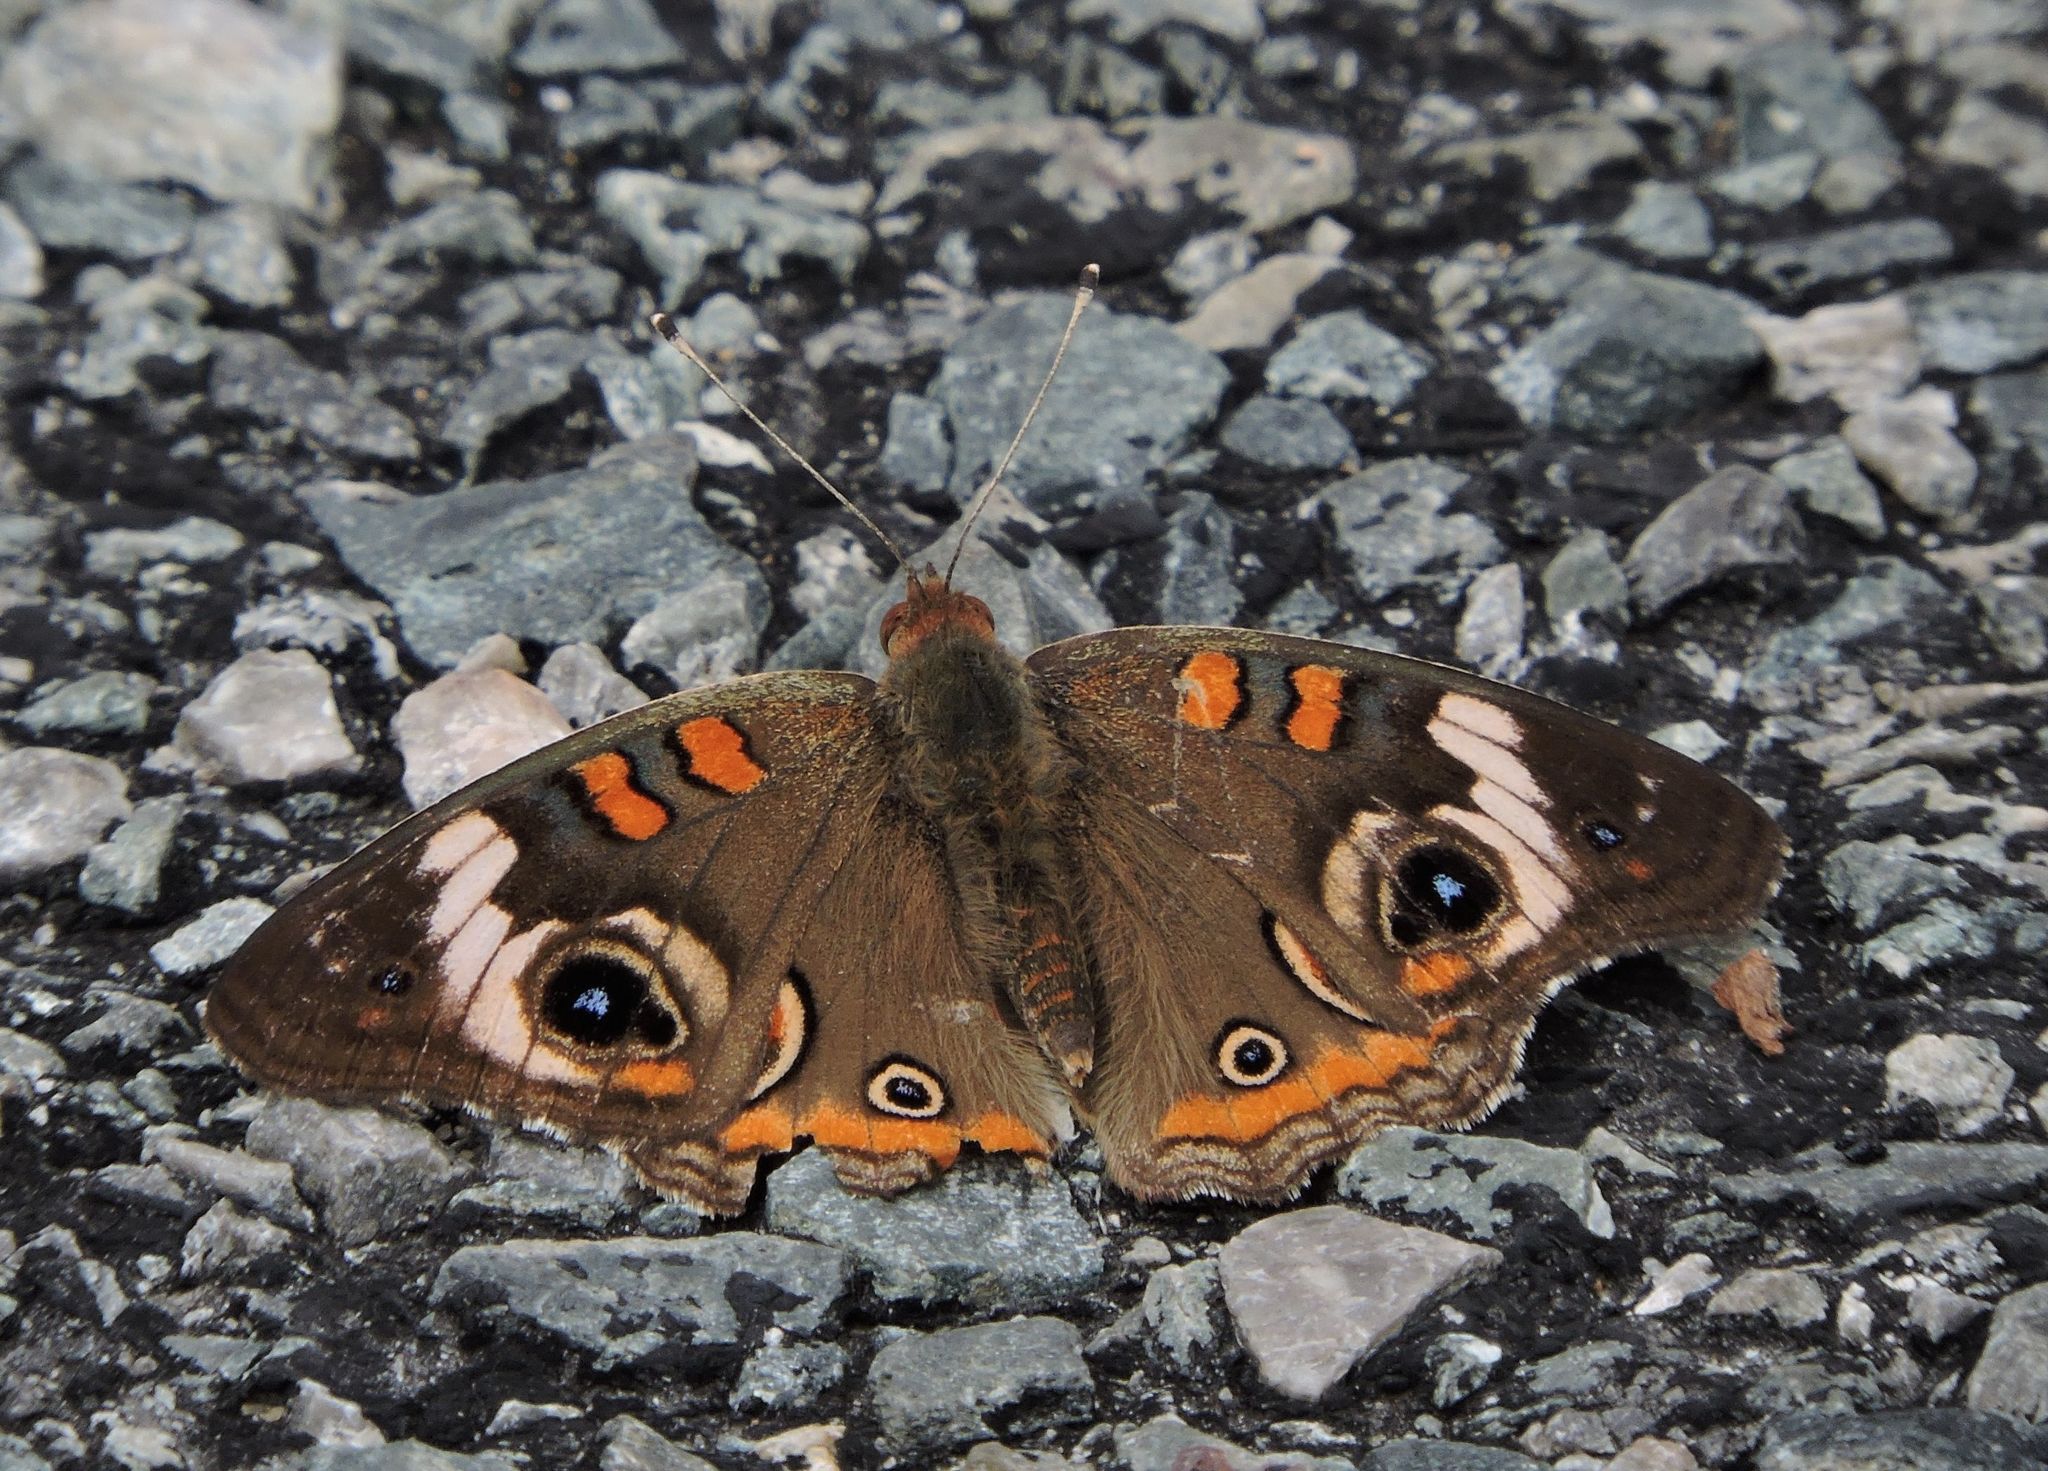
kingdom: Animalia
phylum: Arthropoda
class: Insecta
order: Lepidoptera
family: Nymphalidae
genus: Junonia
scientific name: Junonia coenia
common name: Common buckeye
